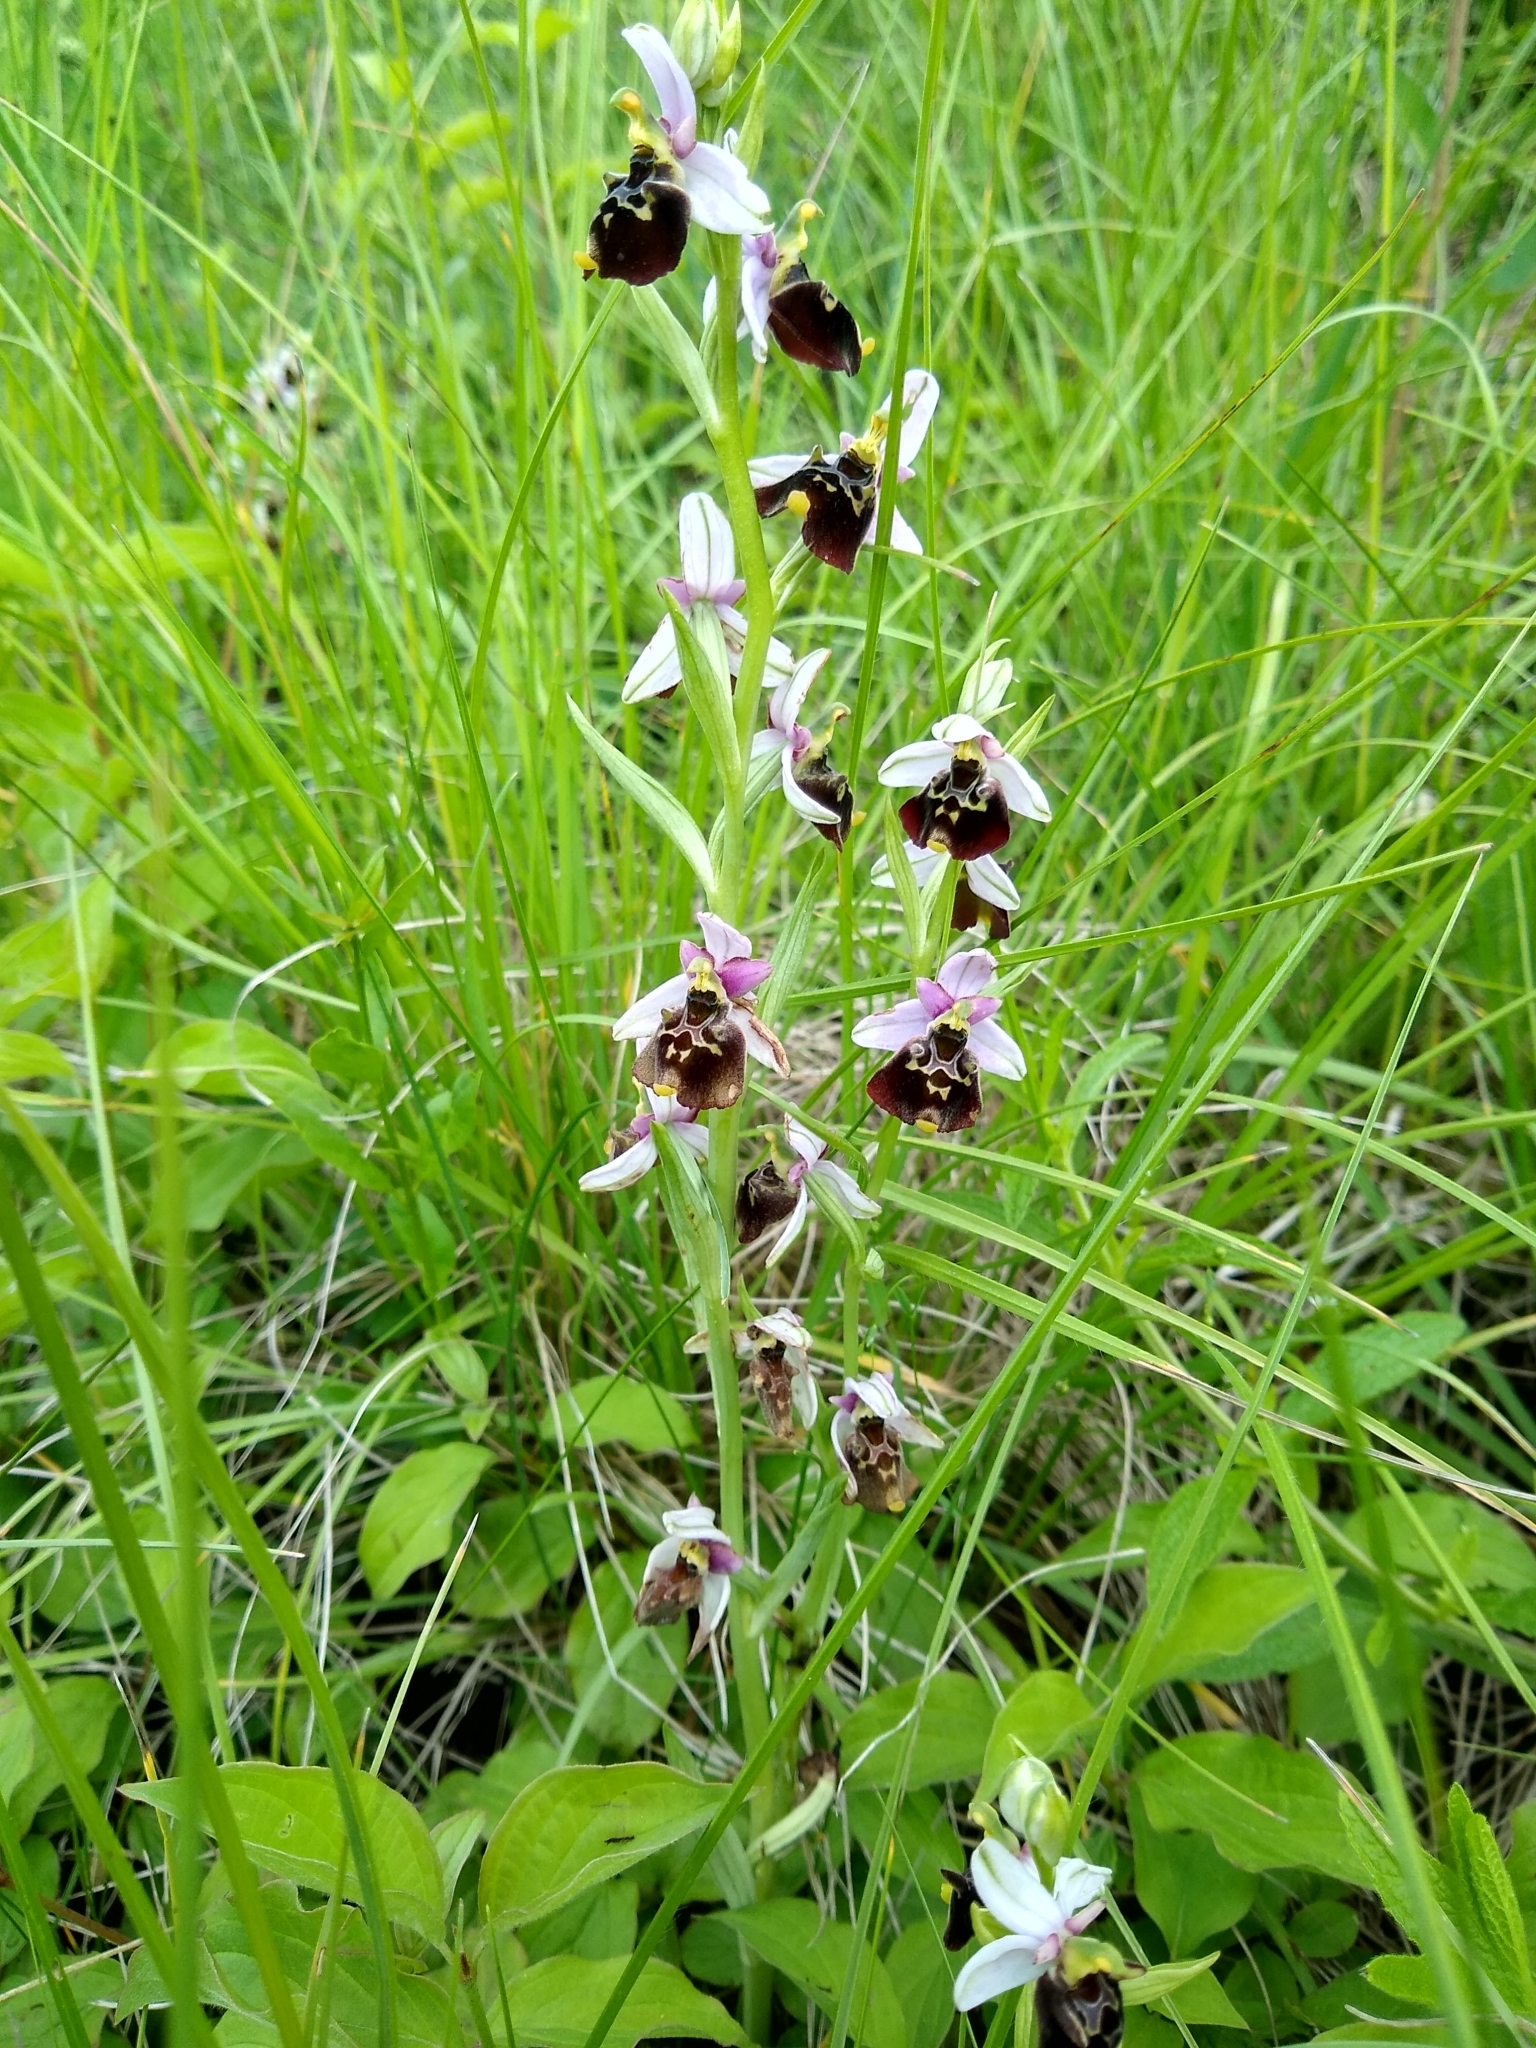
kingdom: Plantae
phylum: Tracheophyta
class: Liliopsida
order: Asparagales
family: Orchidaceae
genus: Ophrys
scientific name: Ophrys holosericea
